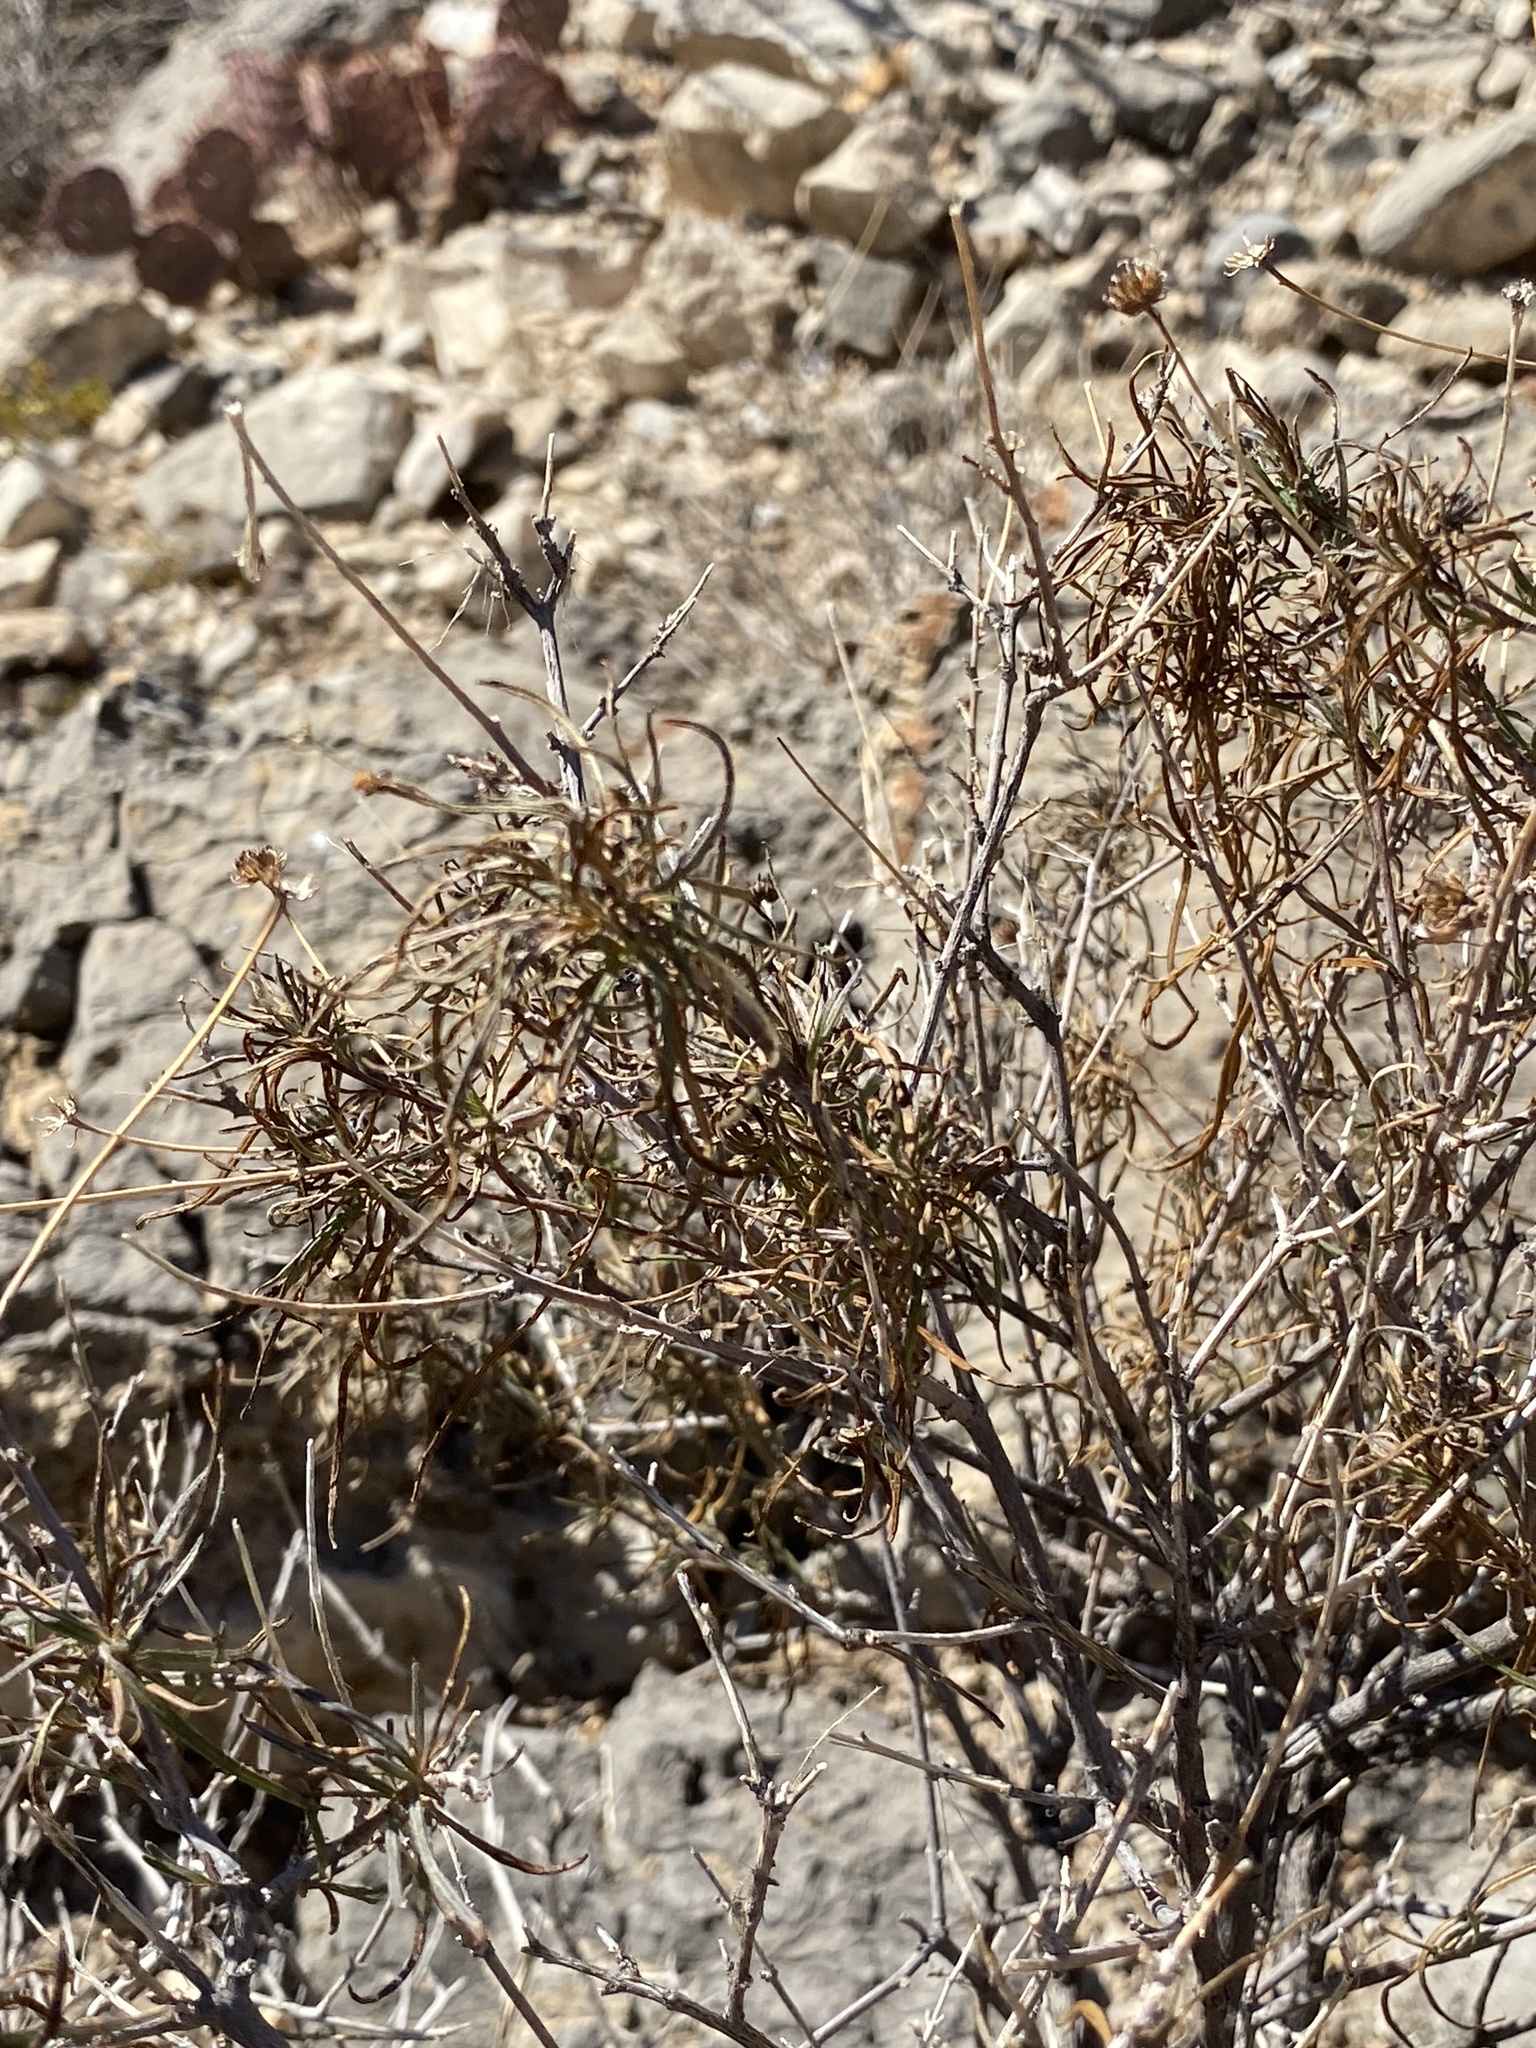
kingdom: Plantae
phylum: Tracheophyta
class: Magnoliopsida
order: Asterales
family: Asteraceae
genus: Sidneya
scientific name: Sidneya tenuifolia
